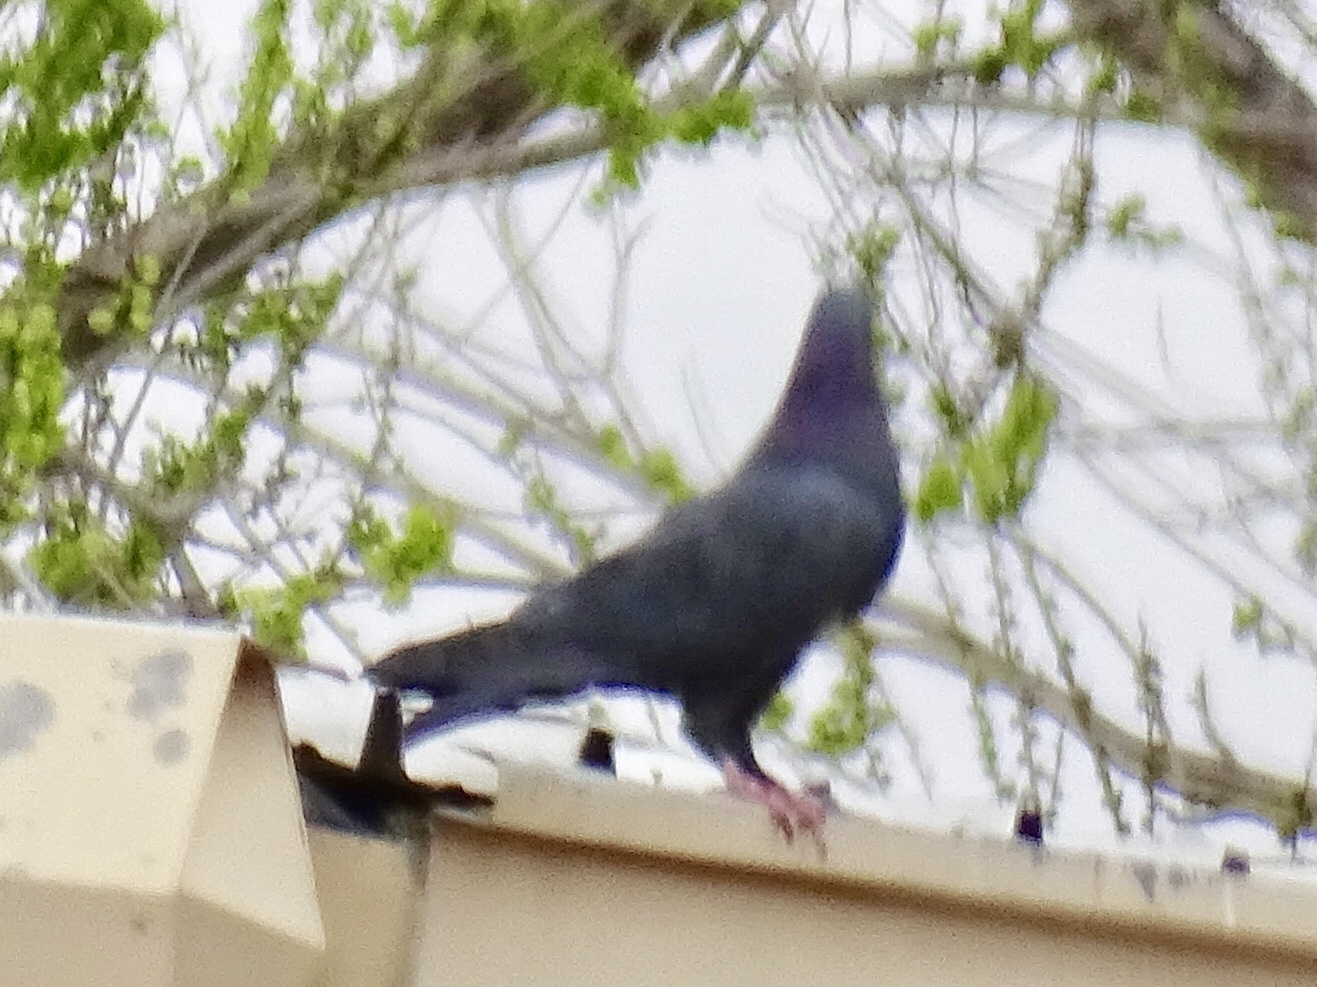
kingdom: Animalia
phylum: Chordata
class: Aves
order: Columbiformes
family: Columbidae
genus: Columba
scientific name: Columba livia
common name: Rock pigeon
